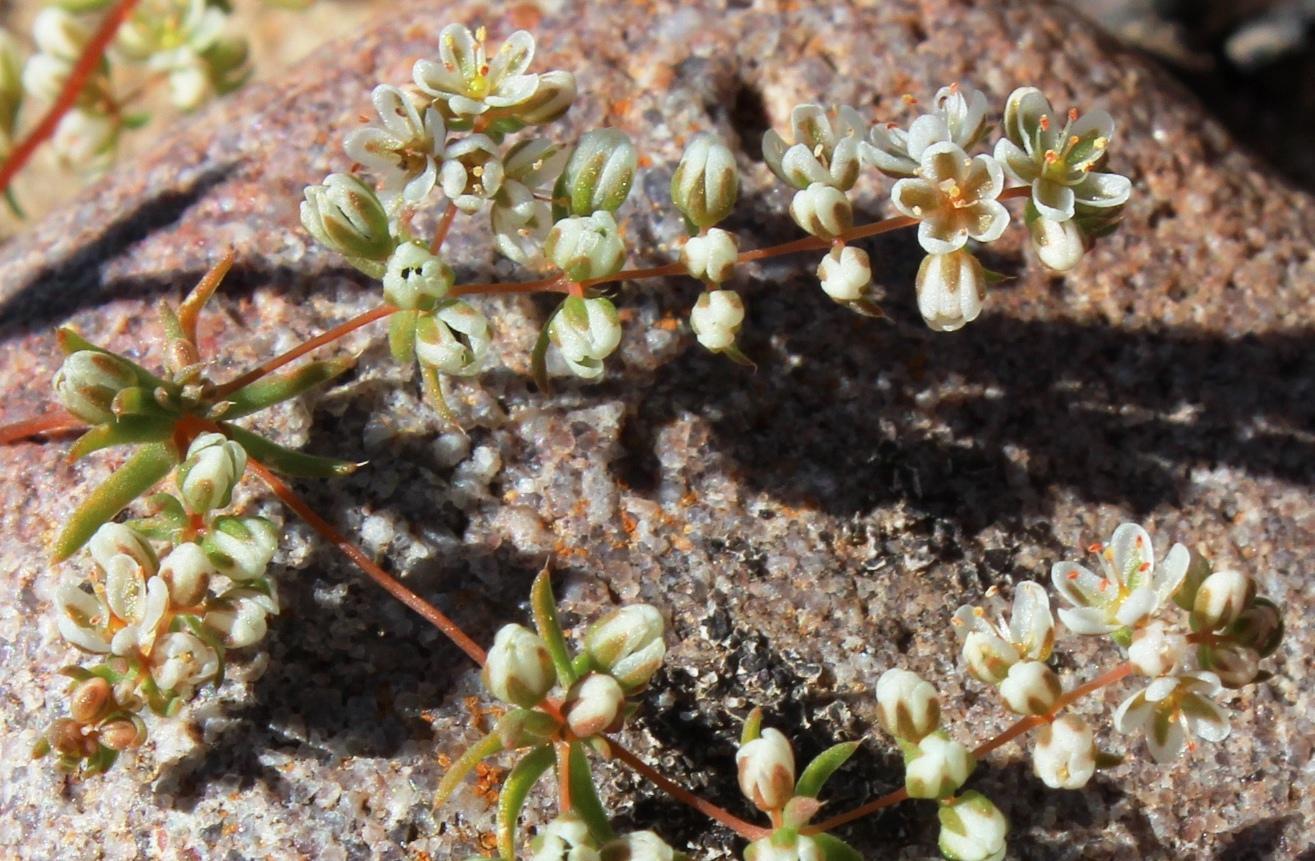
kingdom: Plantae
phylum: Tracheophyta
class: Magnoliopsida
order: Caryophyllales
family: Molluginaceae
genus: Adenogramma
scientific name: Adenogramma glomerata
